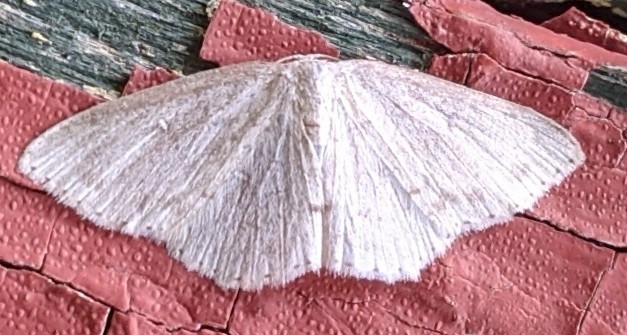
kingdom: Animalia
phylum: Arthropoda
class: Insecta
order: Lepidoptera
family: Geometridae
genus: Cyclophora
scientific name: Cyclophora pendulinaria
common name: Sweet fern geometer
